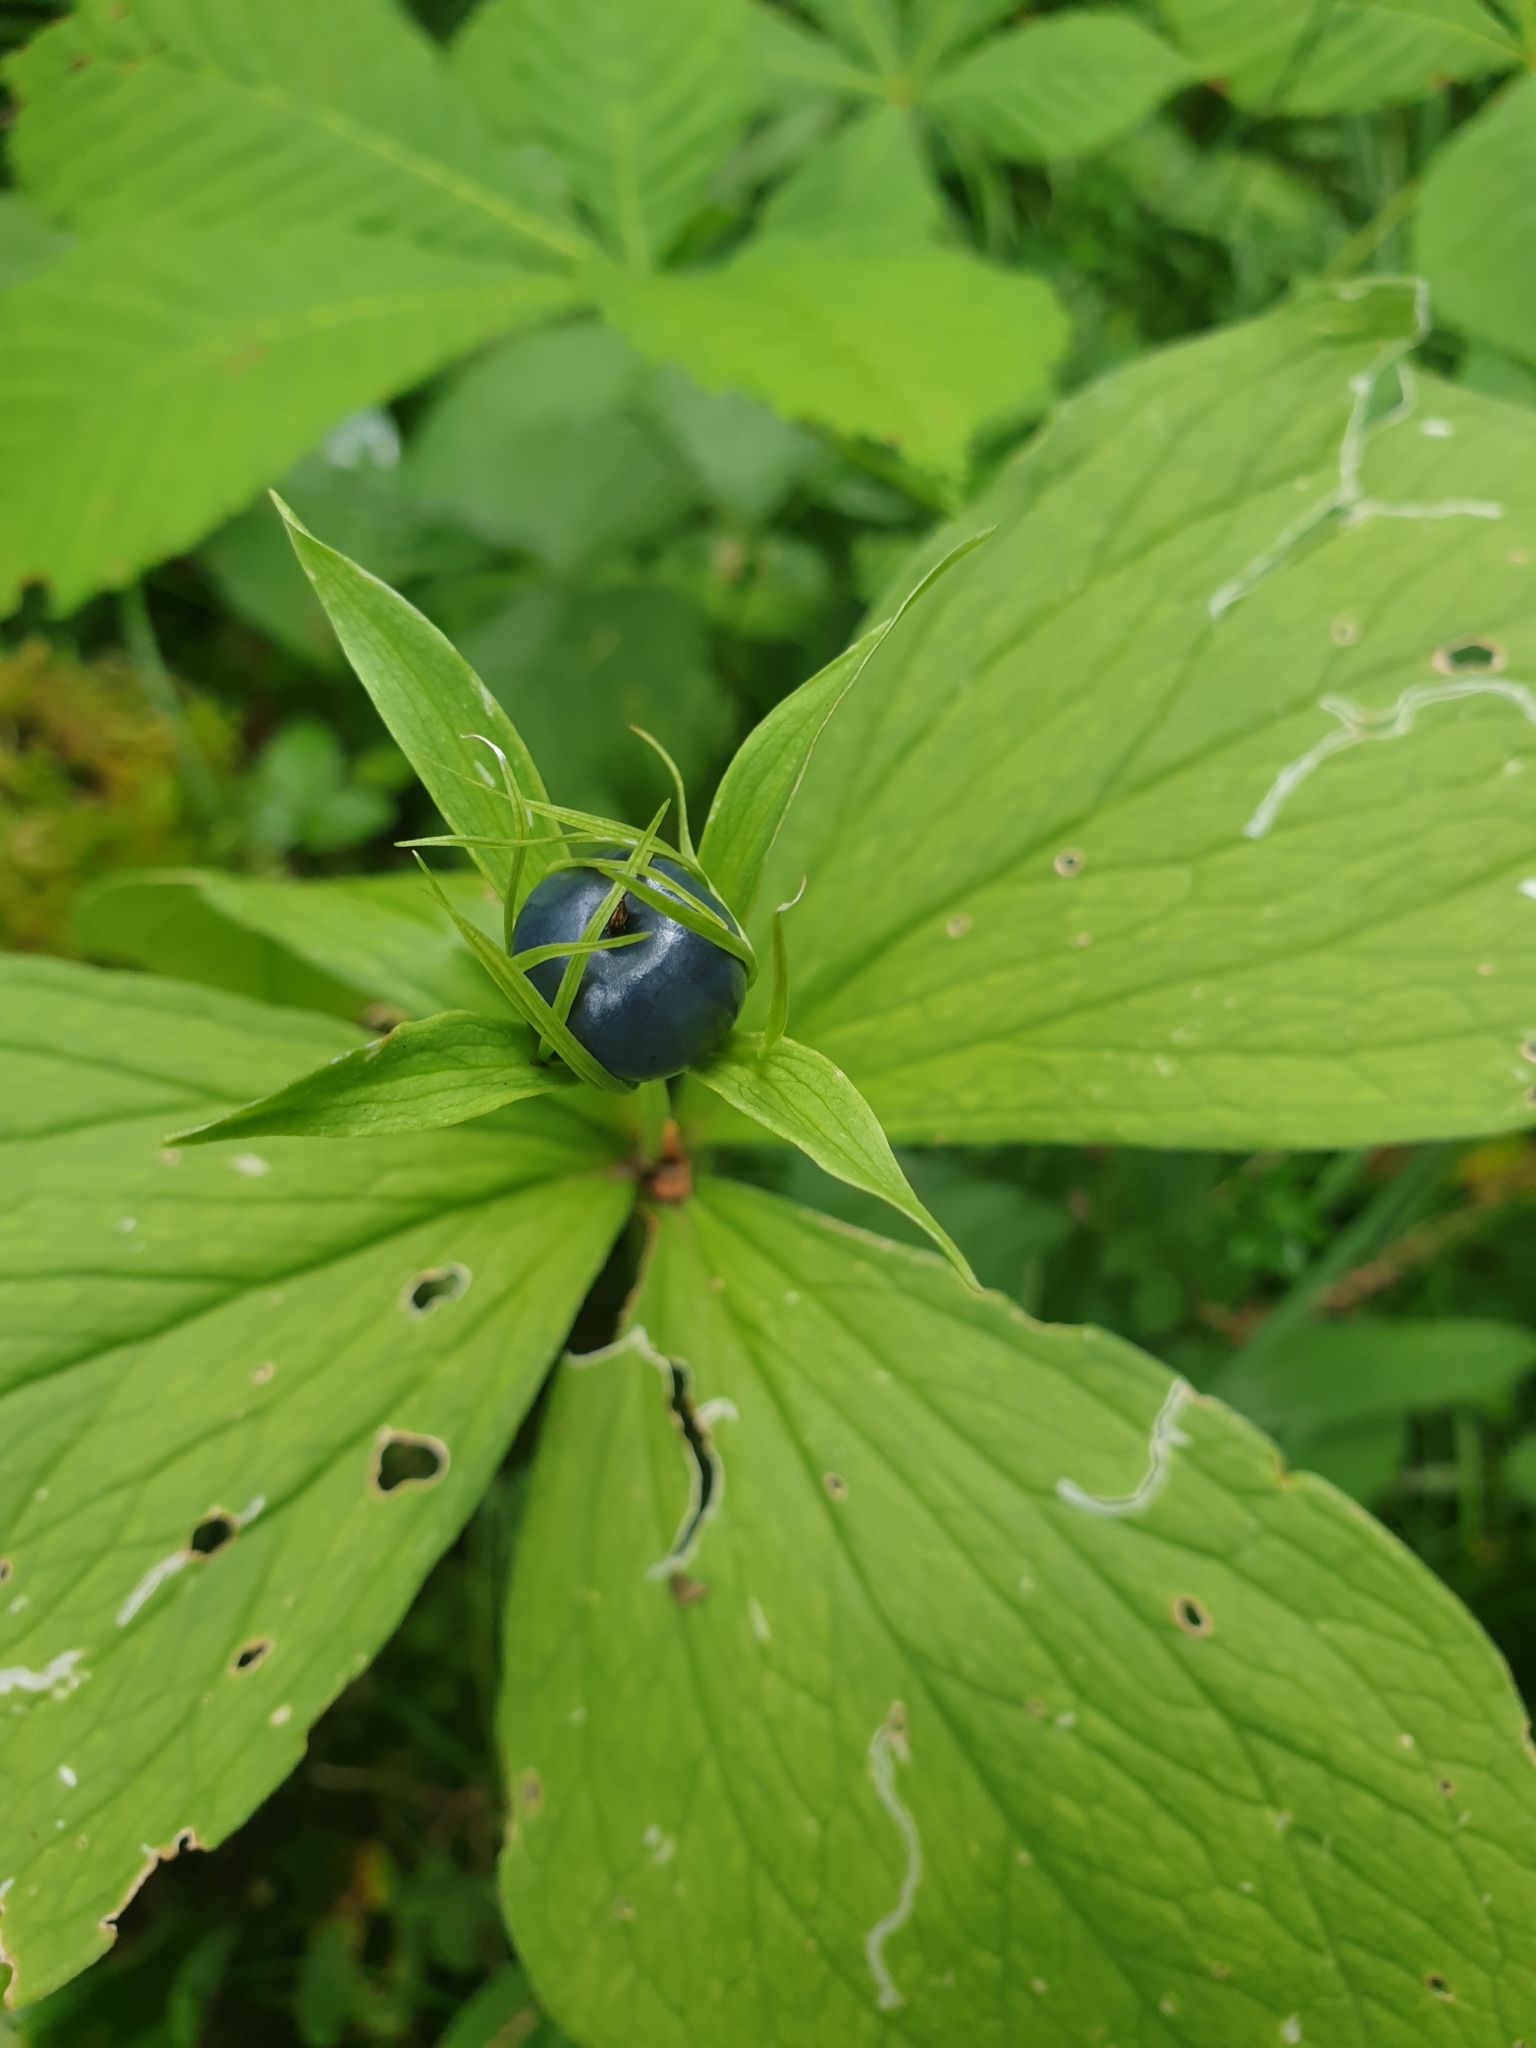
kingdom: Plantae
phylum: Tracheophyta
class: Liliopsida
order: Liliales
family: Melanthiaceae
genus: Paris
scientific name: Paris quadrifolia
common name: Herb-paris
